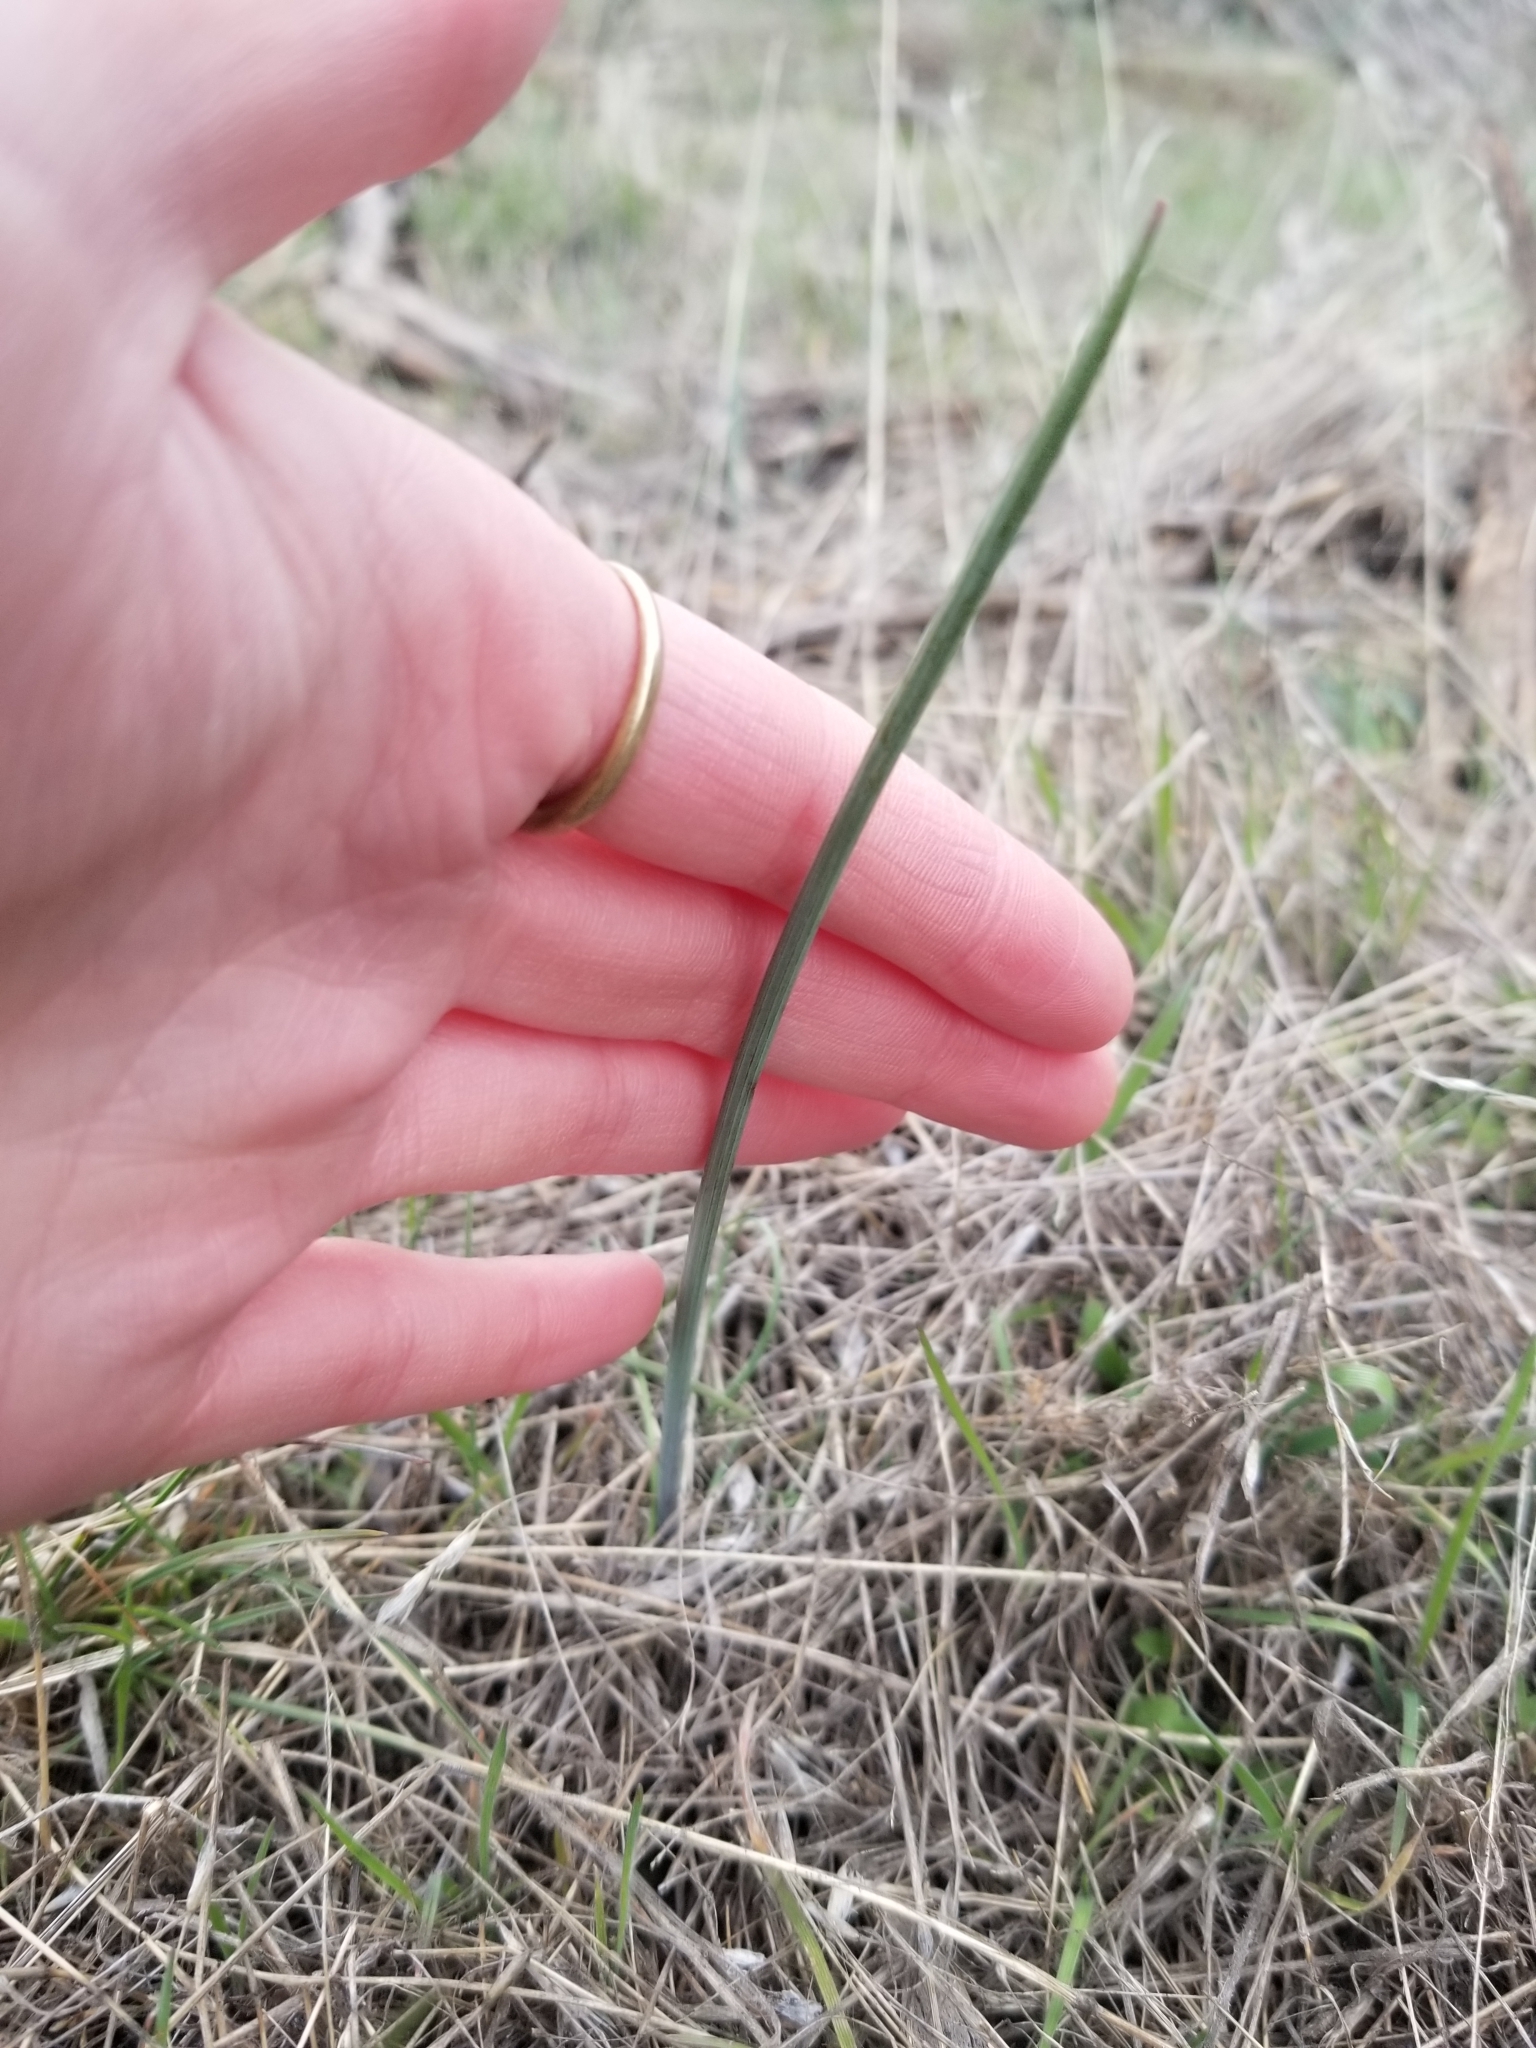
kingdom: Plantae
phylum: Tracheophyta
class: Liliopsida
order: Liliales
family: Liliaceae
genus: Calochortus
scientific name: Calochortus macrocarpus
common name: Green-band mariposa lily
